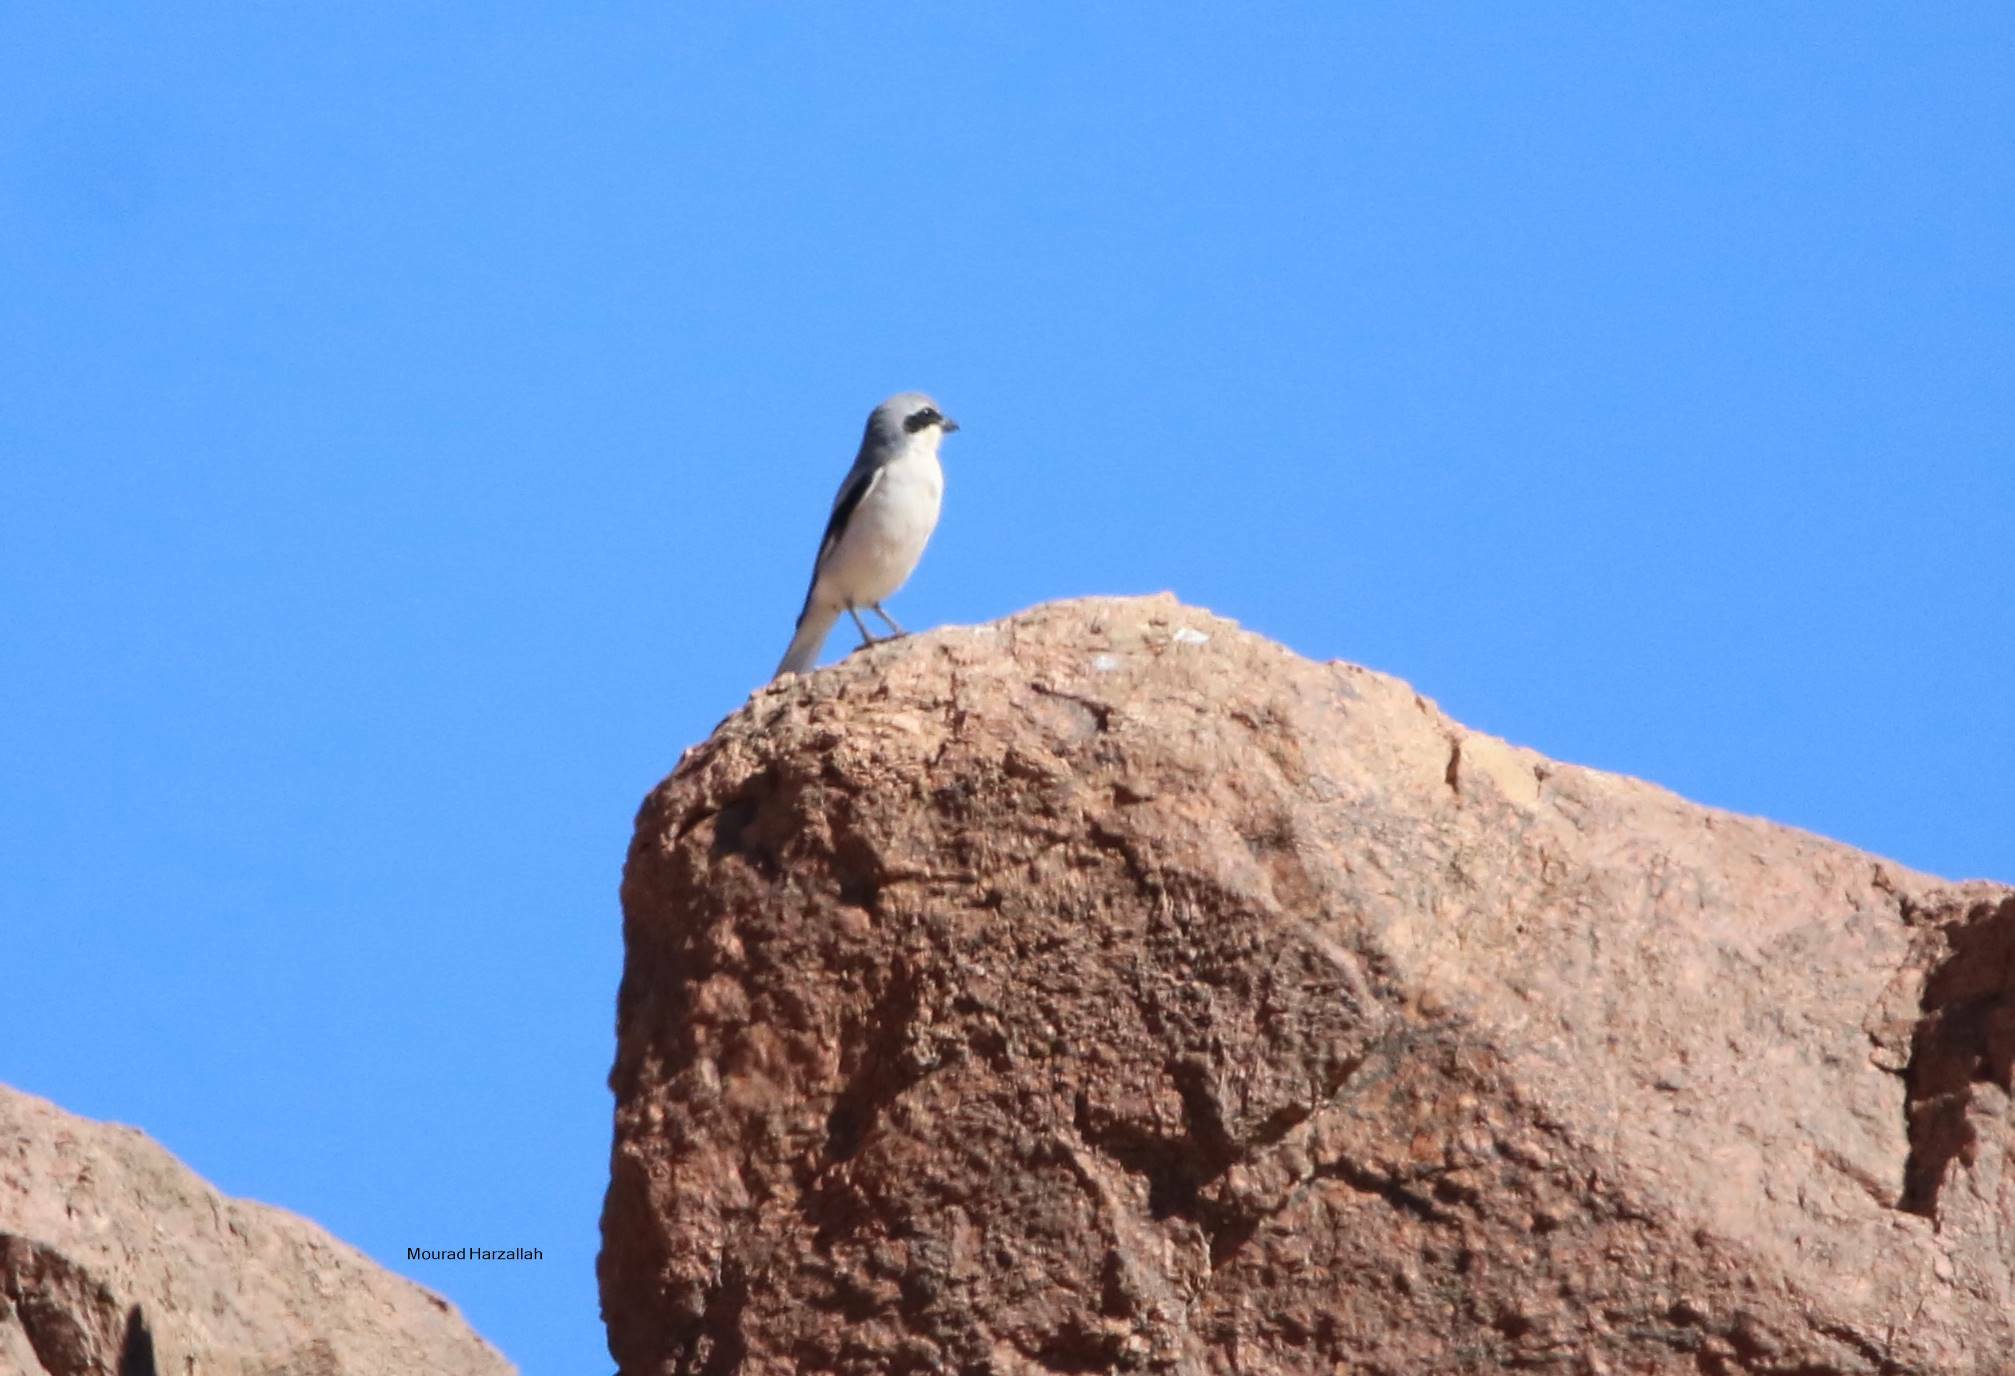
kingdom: Animalia
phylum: Chordata
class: Aves
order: Passeriformes
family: Laniidae
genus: Lanius
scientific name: Lanius excubitor
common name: Great grey shrike
